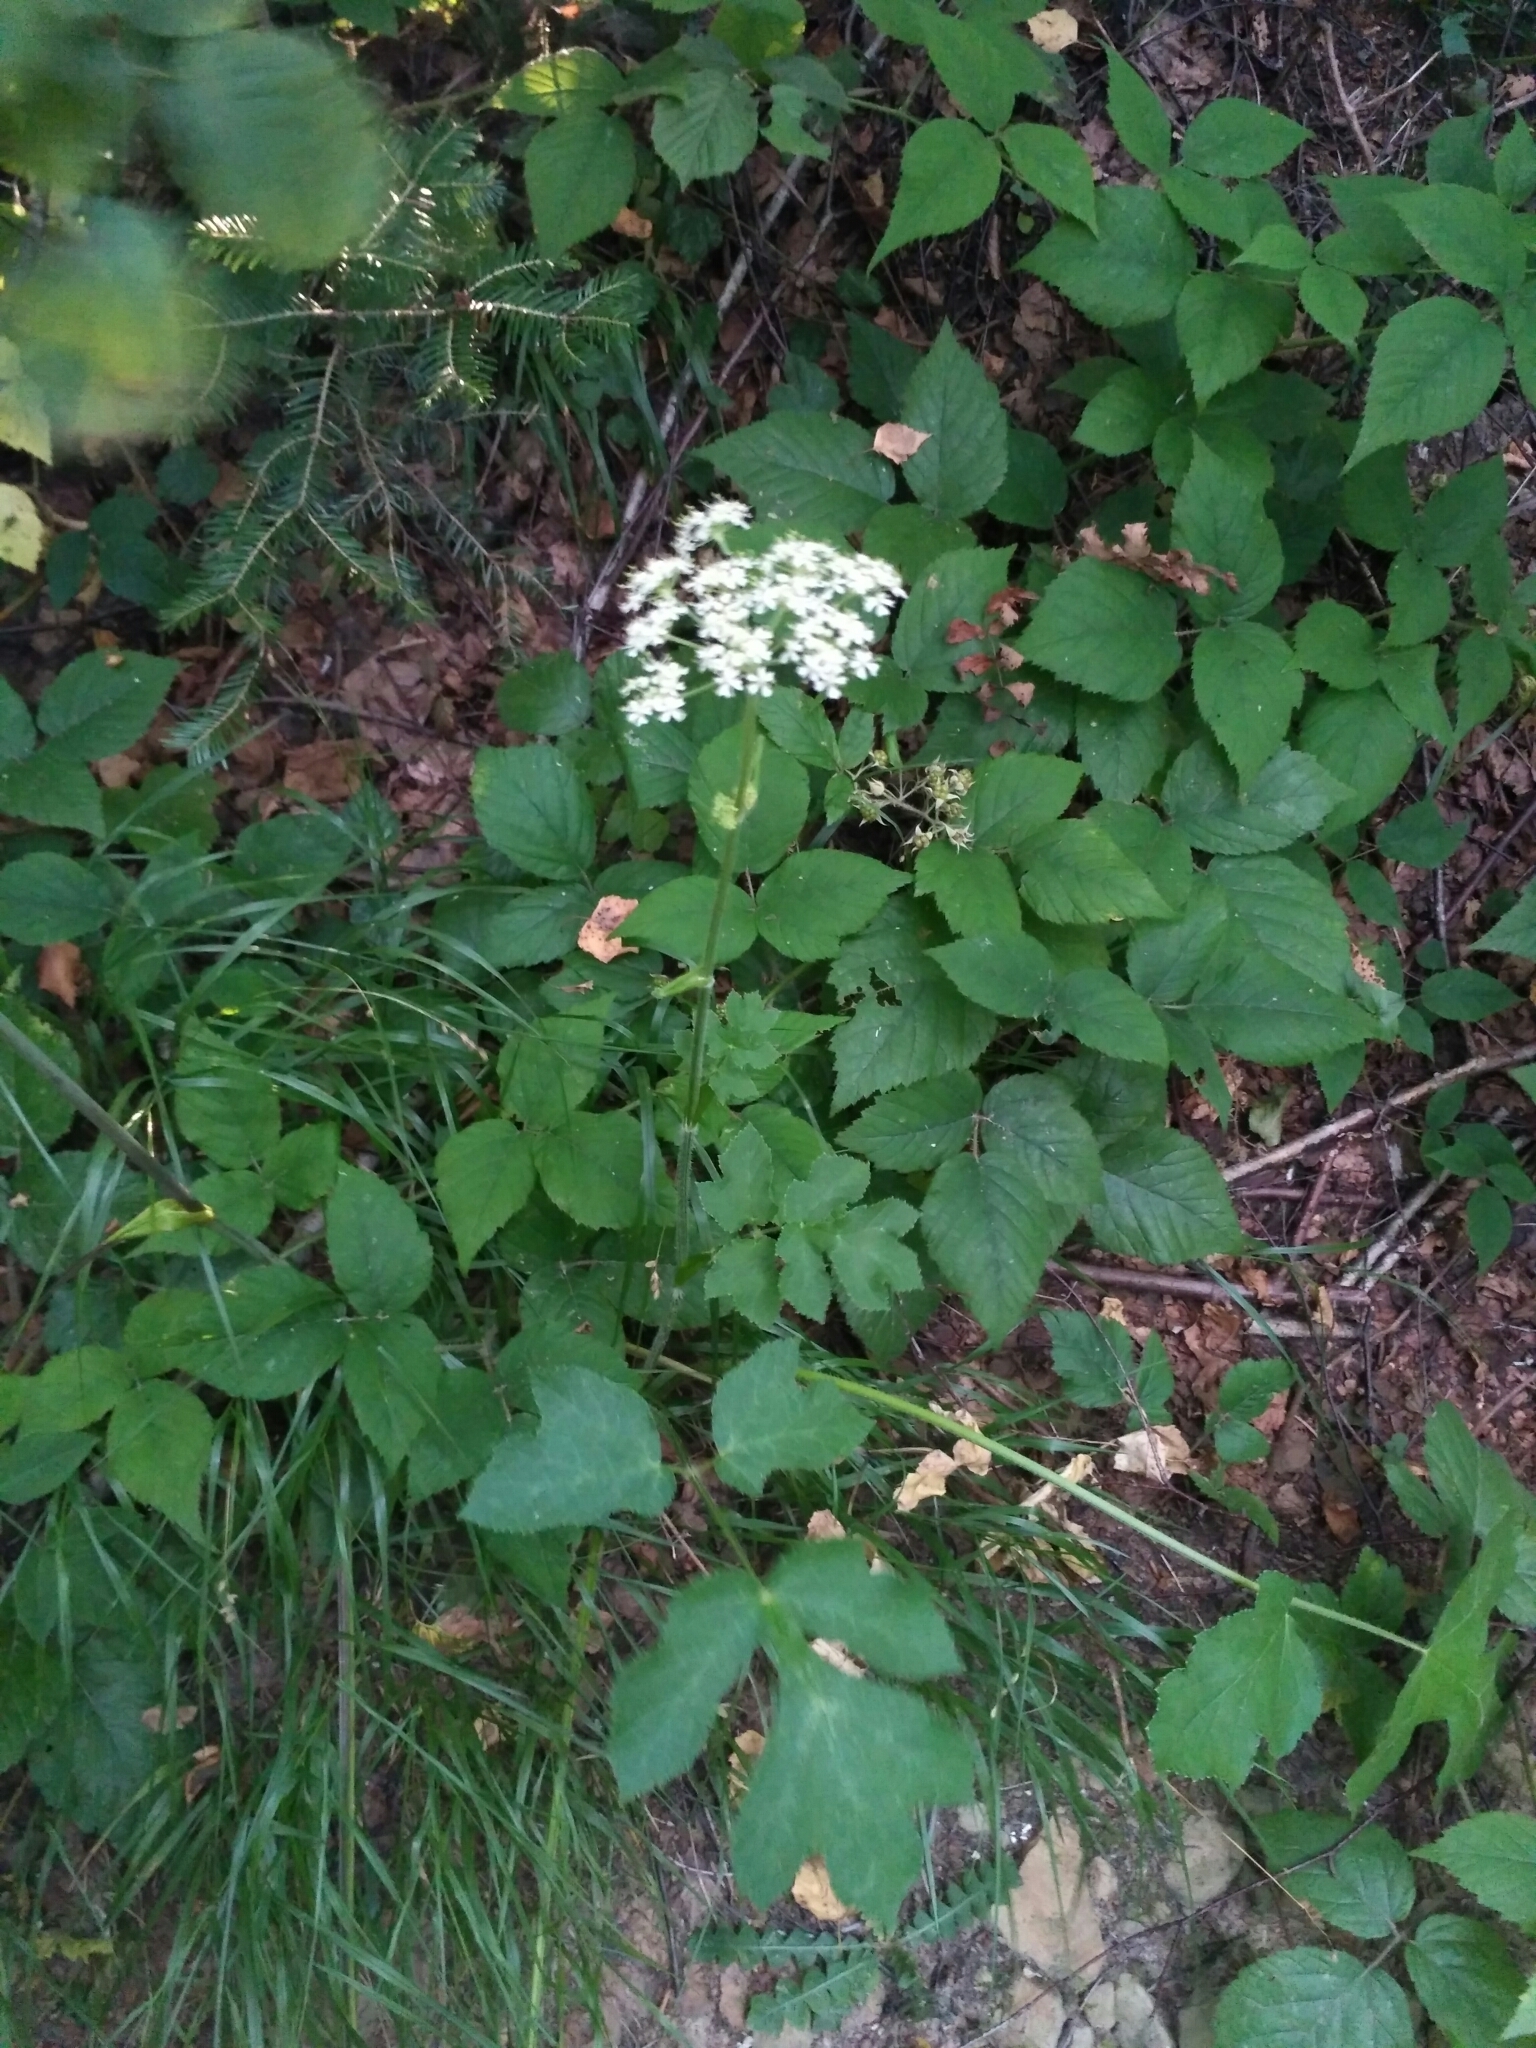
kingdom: Plantae
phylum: Tracheophyta
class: Magnoliopsida
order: Apiales
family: Apiaceae
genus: Heracleum
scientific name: Heracleum carpaticum
